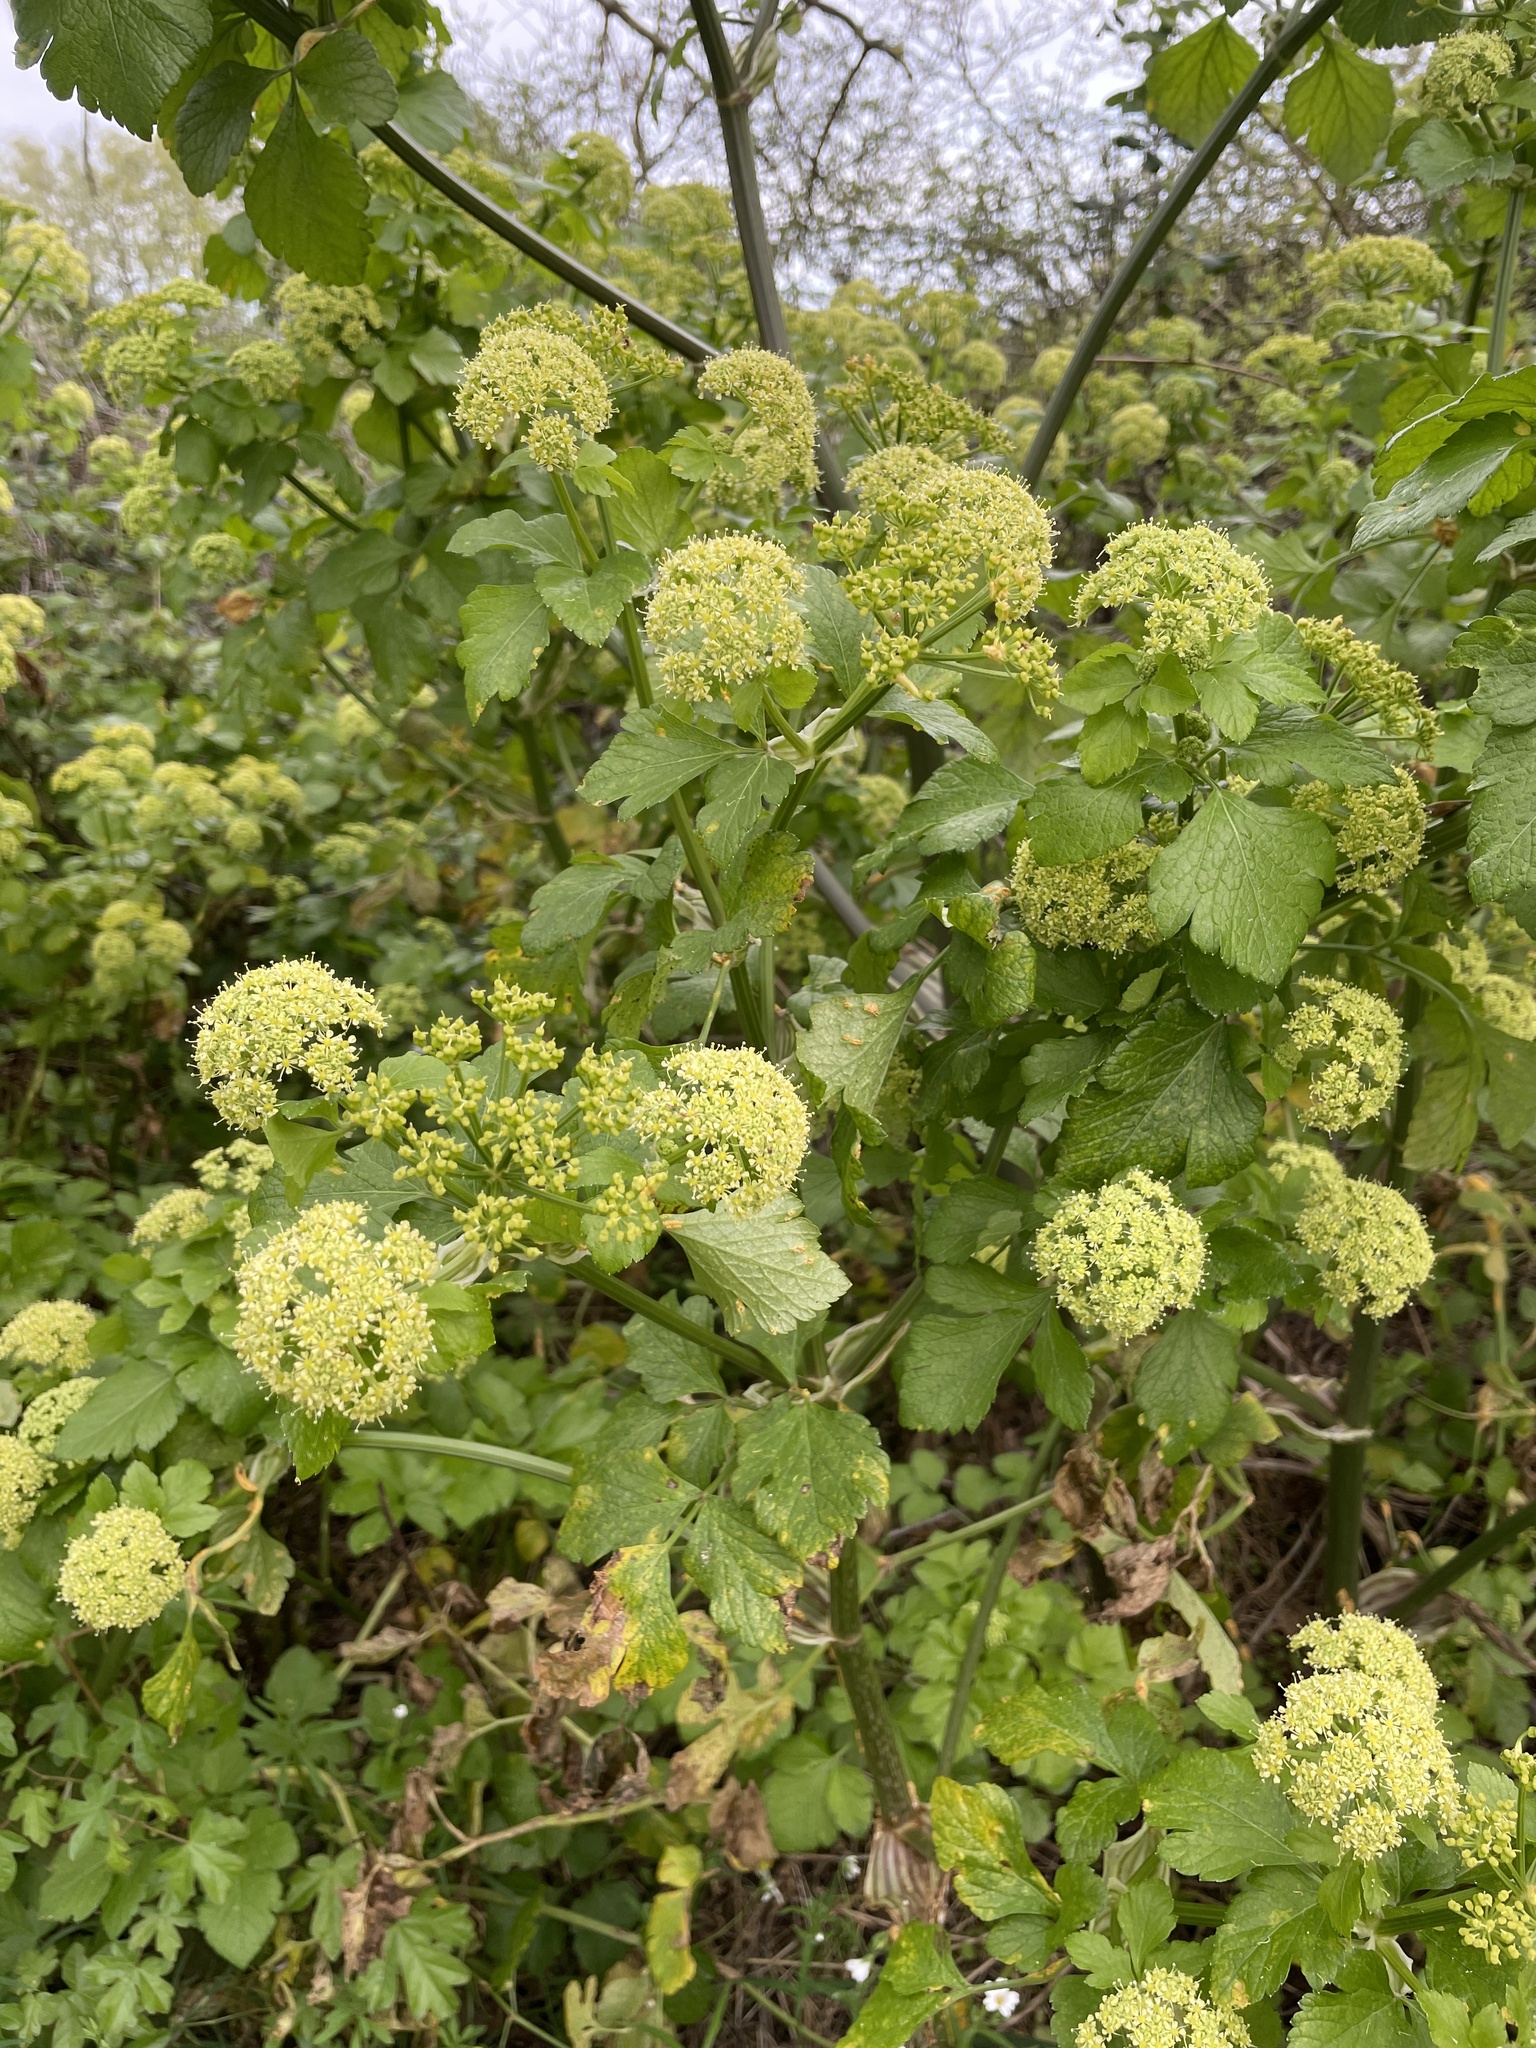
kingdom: Plantae
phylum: Tracheophyta
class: Magnoliopsida
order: Apiales
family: Apiaceae
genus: Smyrnium
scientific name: Smyrnium olusatrum
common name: Alexanders
